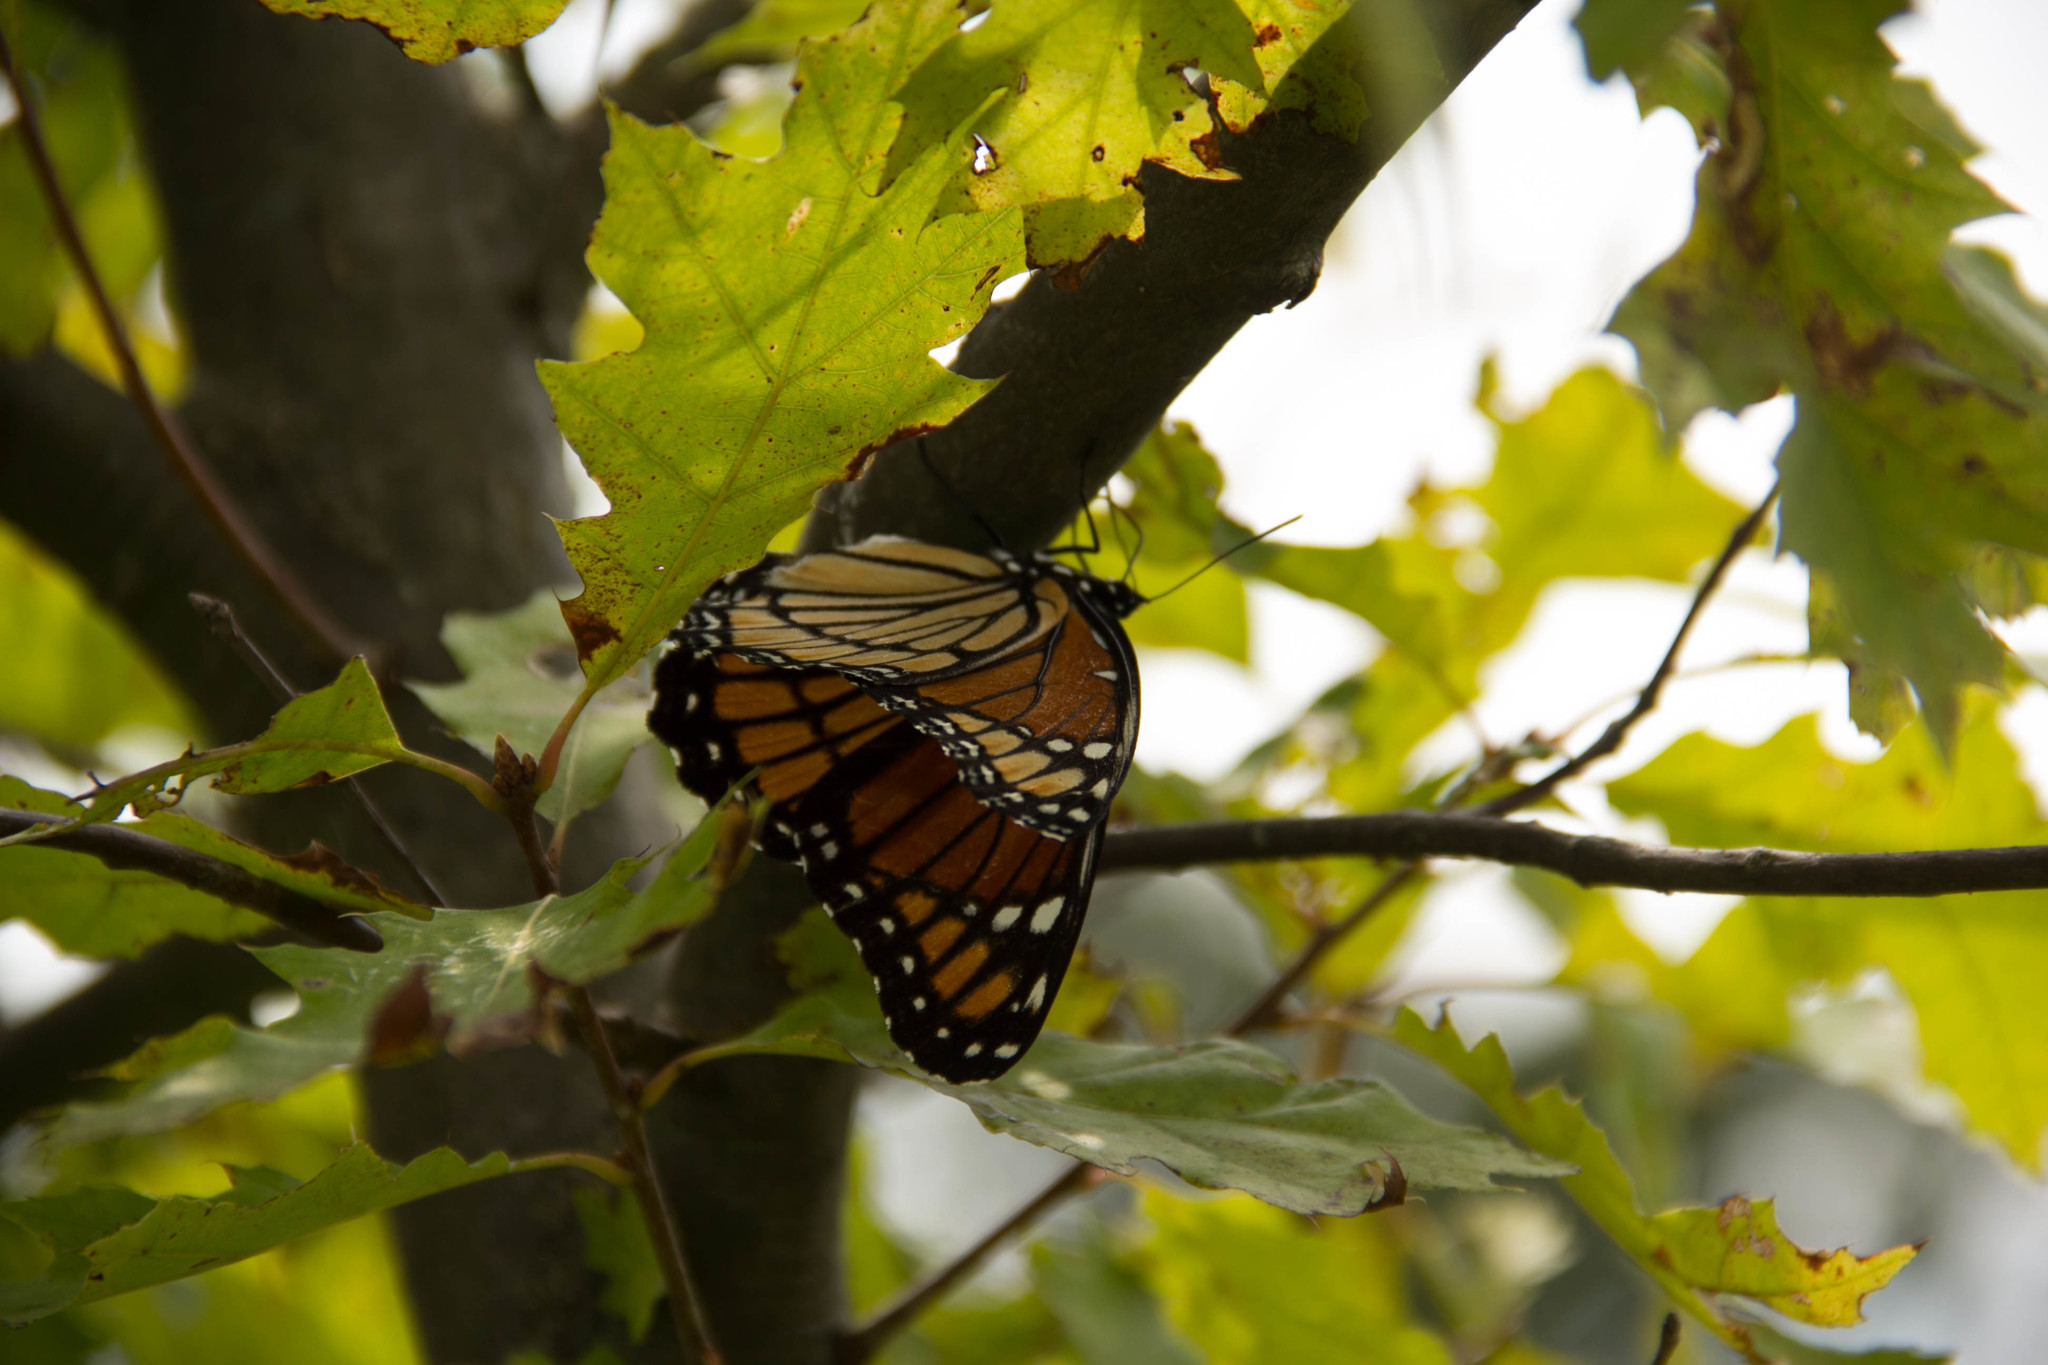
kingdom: Animalia
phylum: Arthropoda
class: Insecta
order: Lepidoptera
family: Nymphalidae
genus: Limenitis
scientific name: Limenitis archippus
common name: Viceroy
